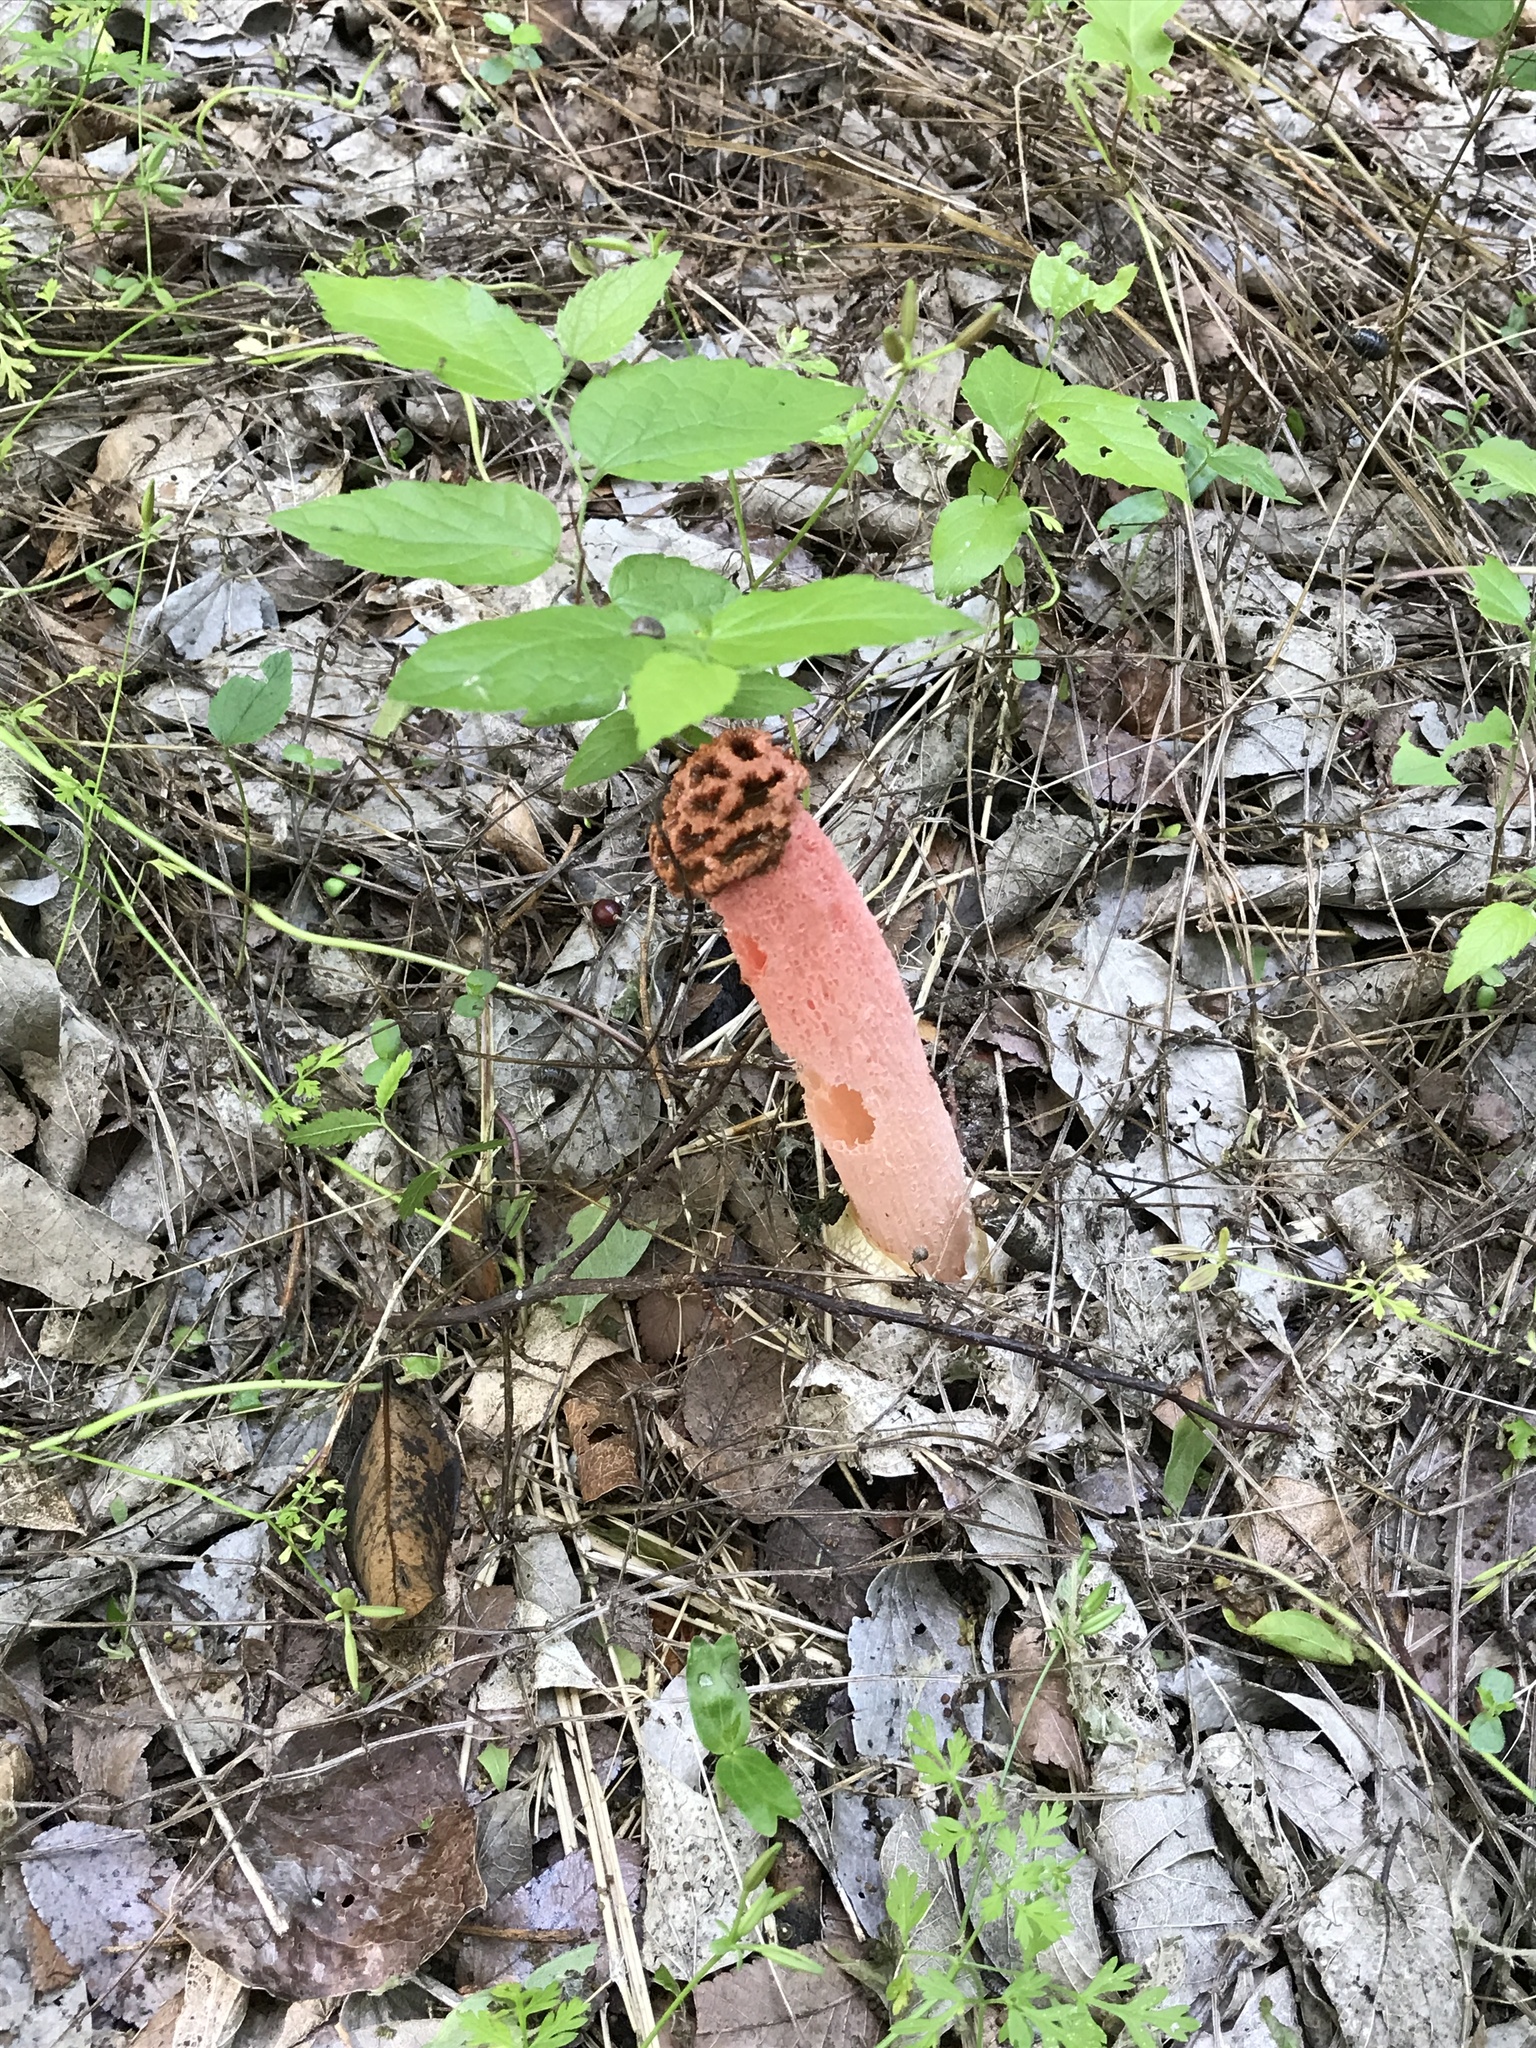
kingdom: Fungi
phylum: Basidiomycota
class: Agaricomycetes
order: Phallales
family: Phallaceae
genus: Lysurus
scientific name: Lysurus periphragmoides
